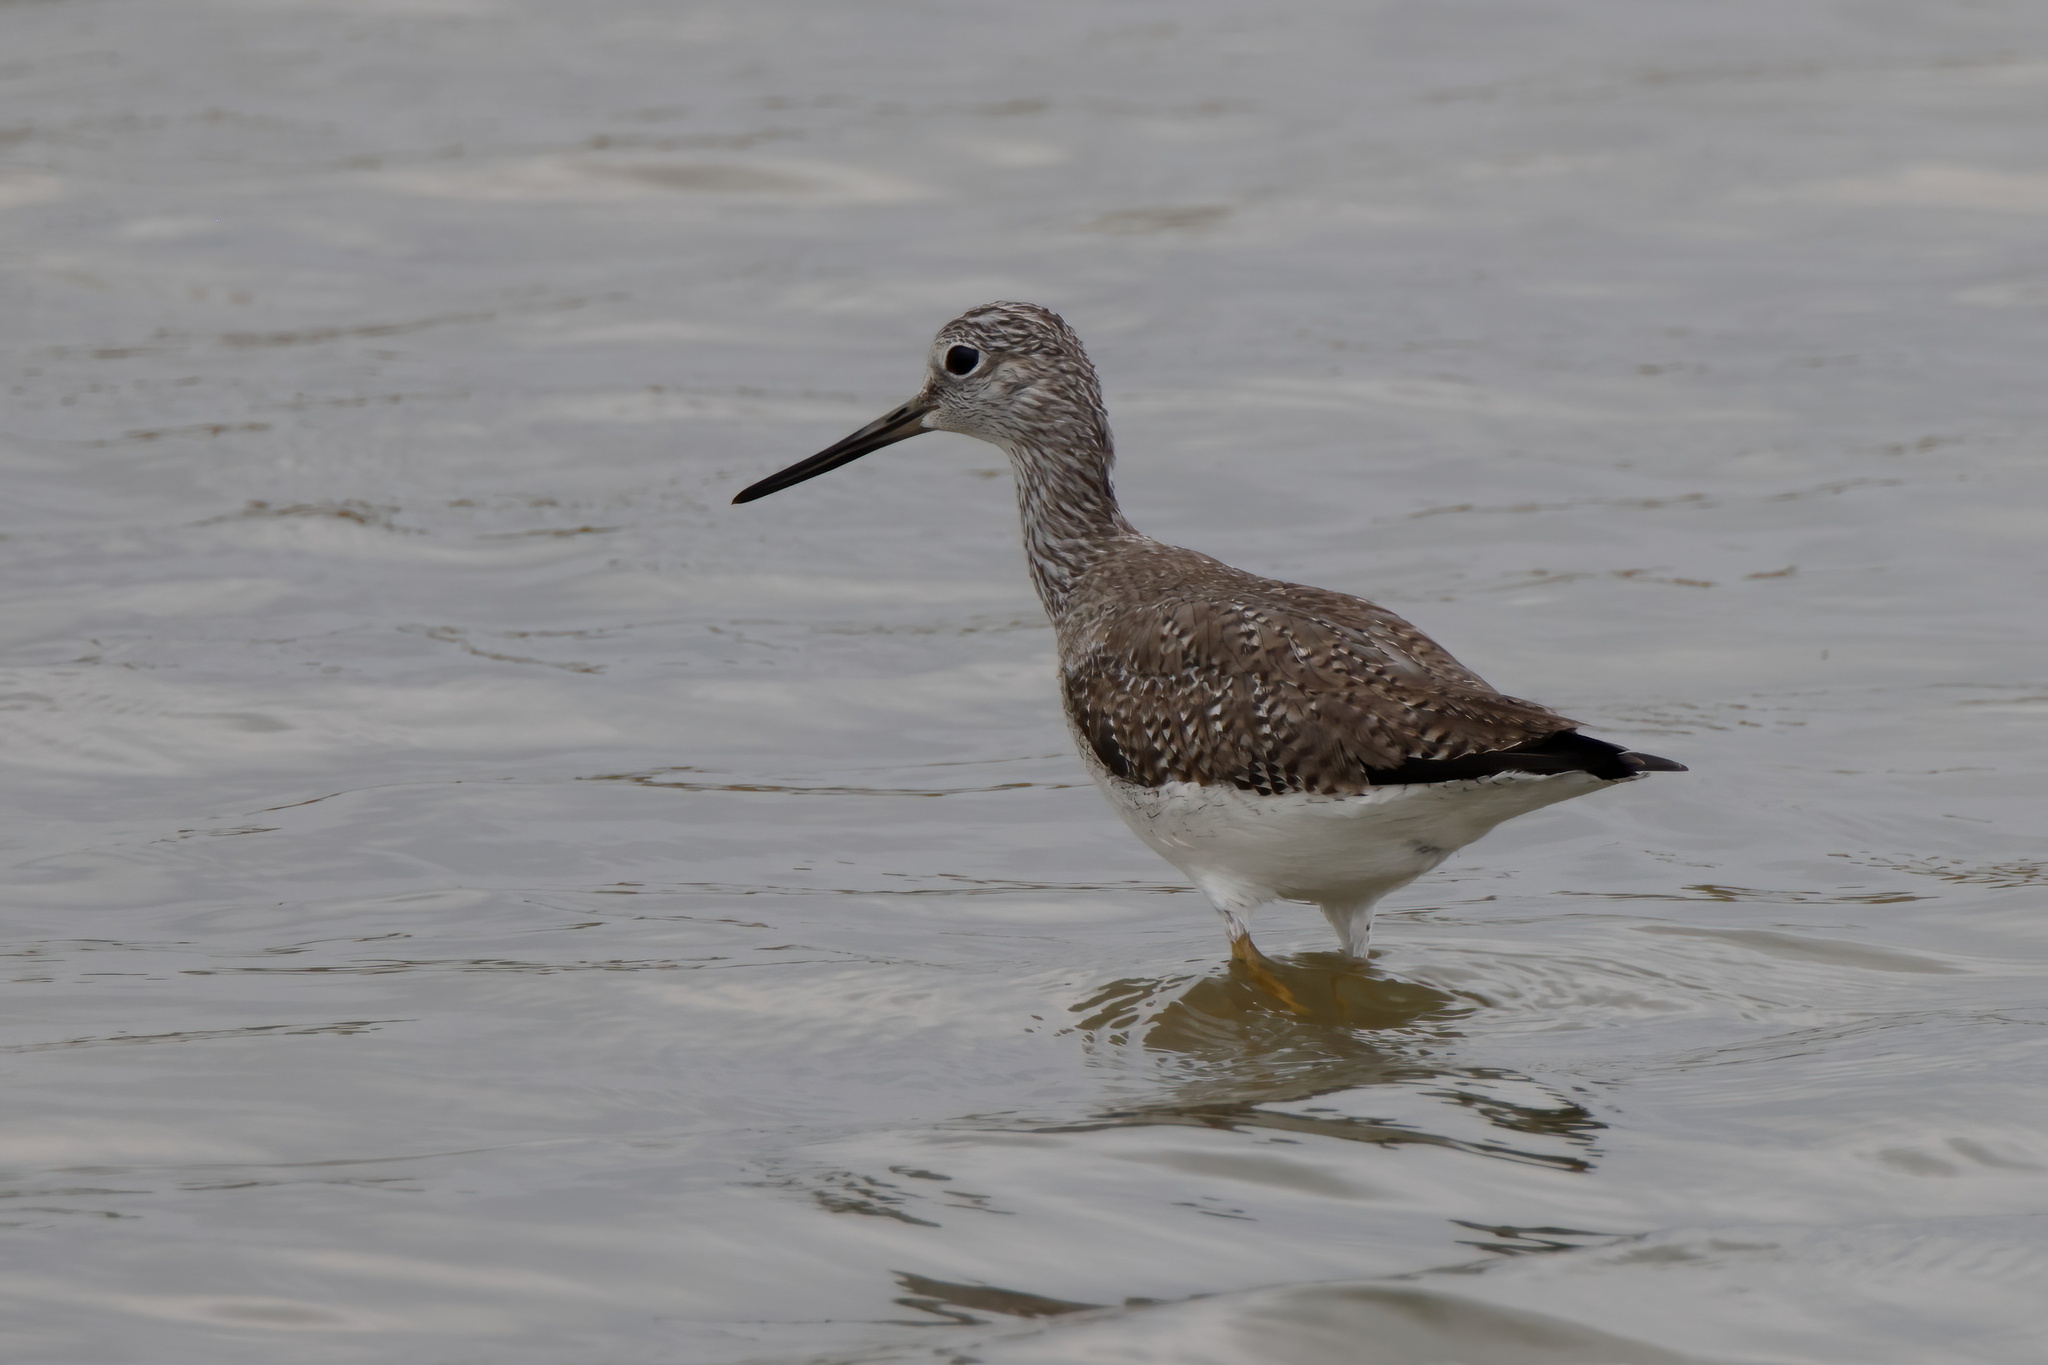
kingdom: Animalia
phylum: Chordata
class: Aves
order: Charadriiformes
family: Scolopacidae
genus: Tringa
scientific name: Tringa melanoleuca
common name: Greater yellowlegs
